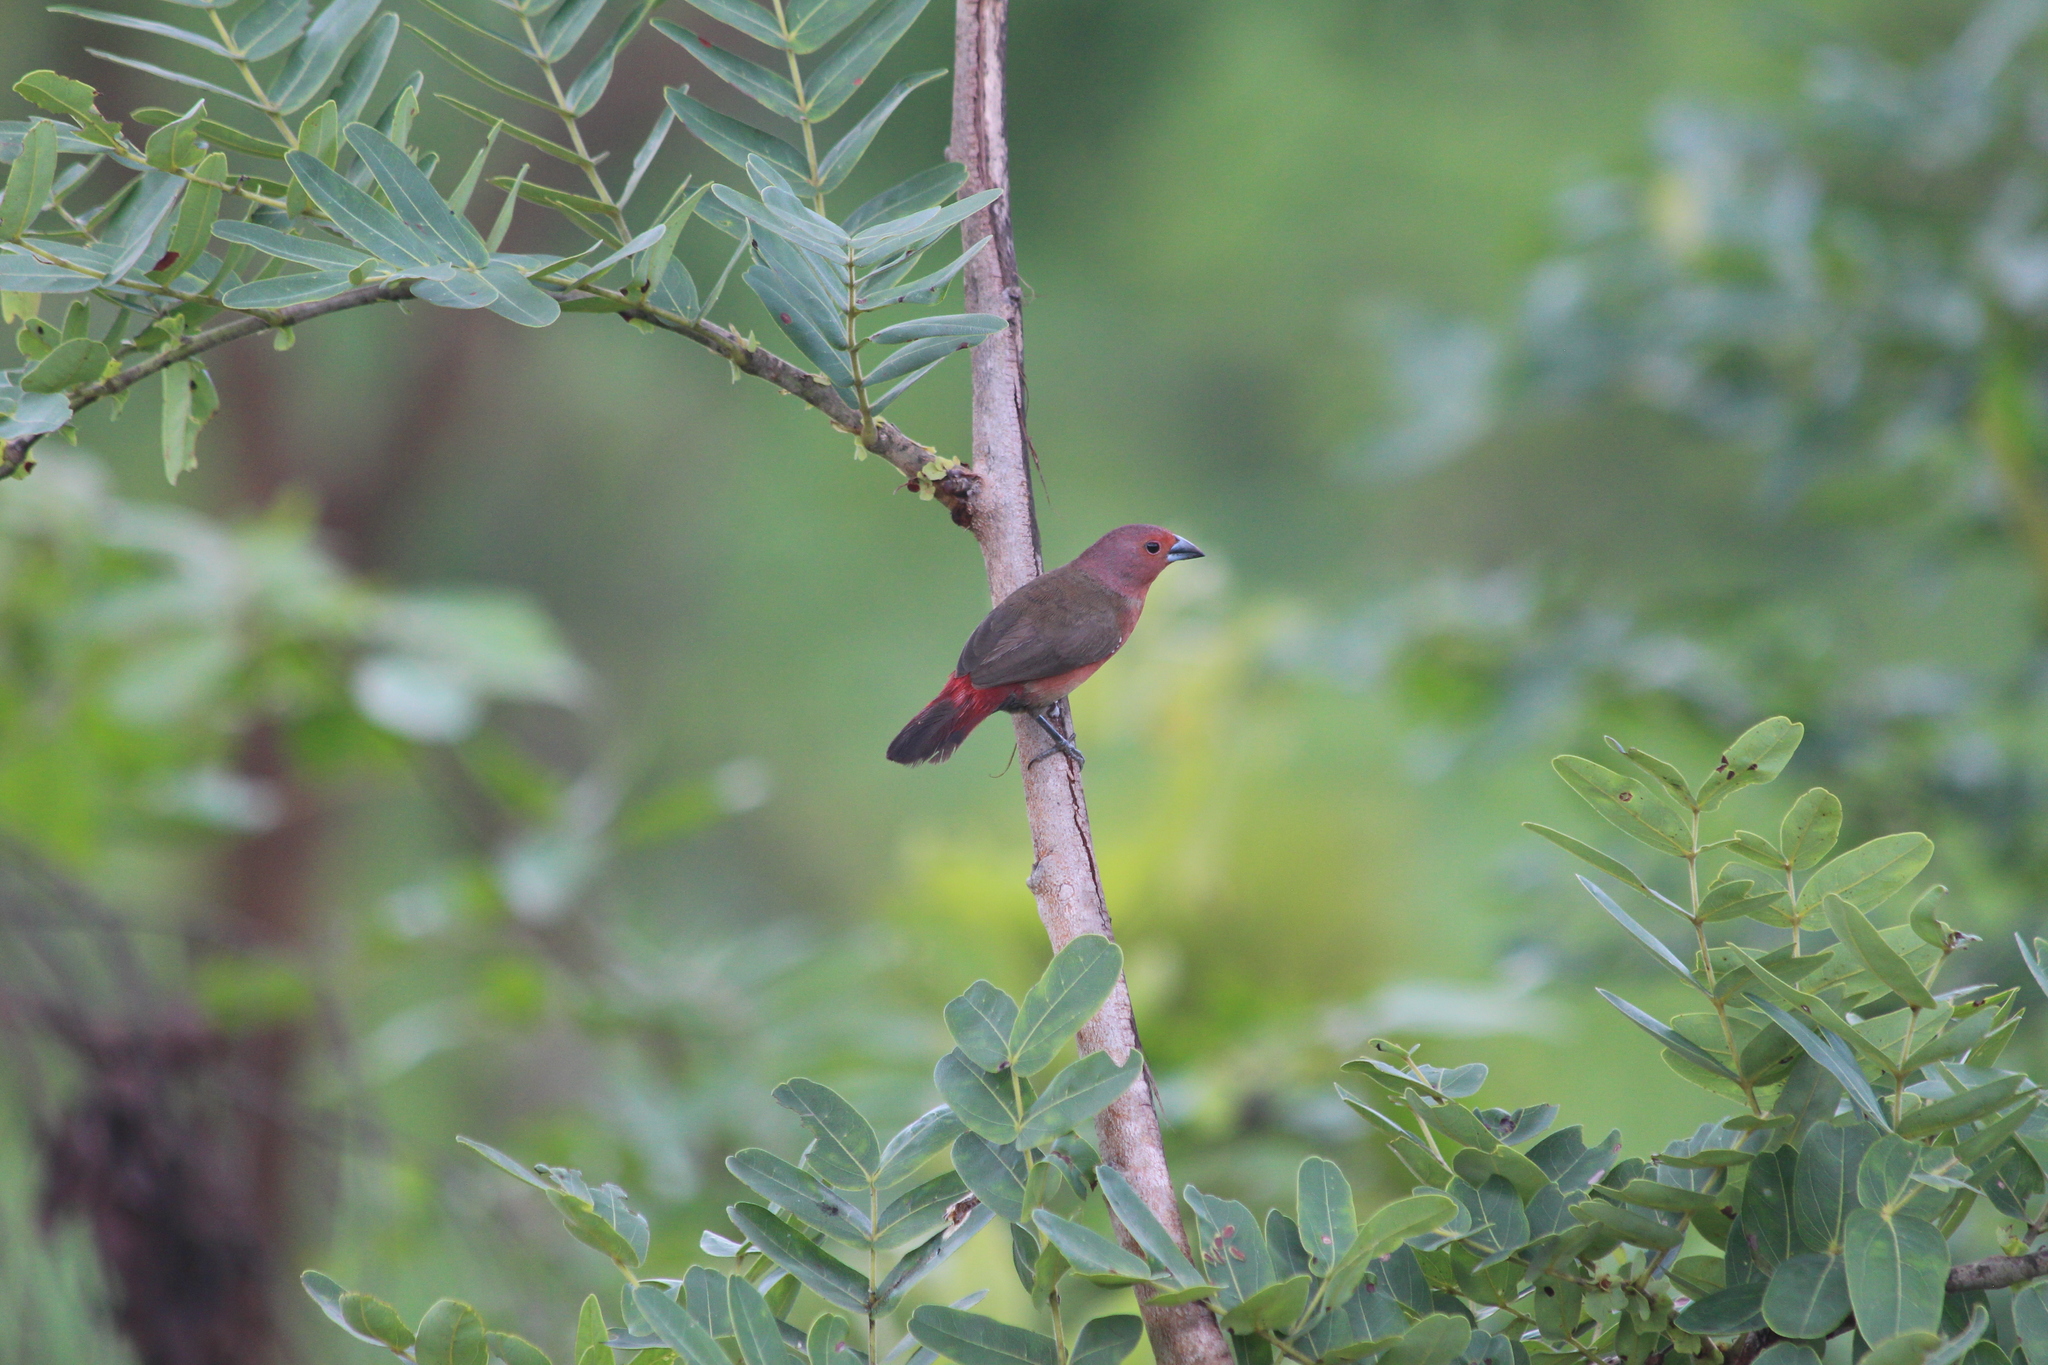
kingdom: Animalia
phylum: Chordata
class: Aves
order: Passeriformes
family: Estrildidae
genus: Lagonosticta
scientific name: Lagonosticta rubricata
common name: African firefinch
